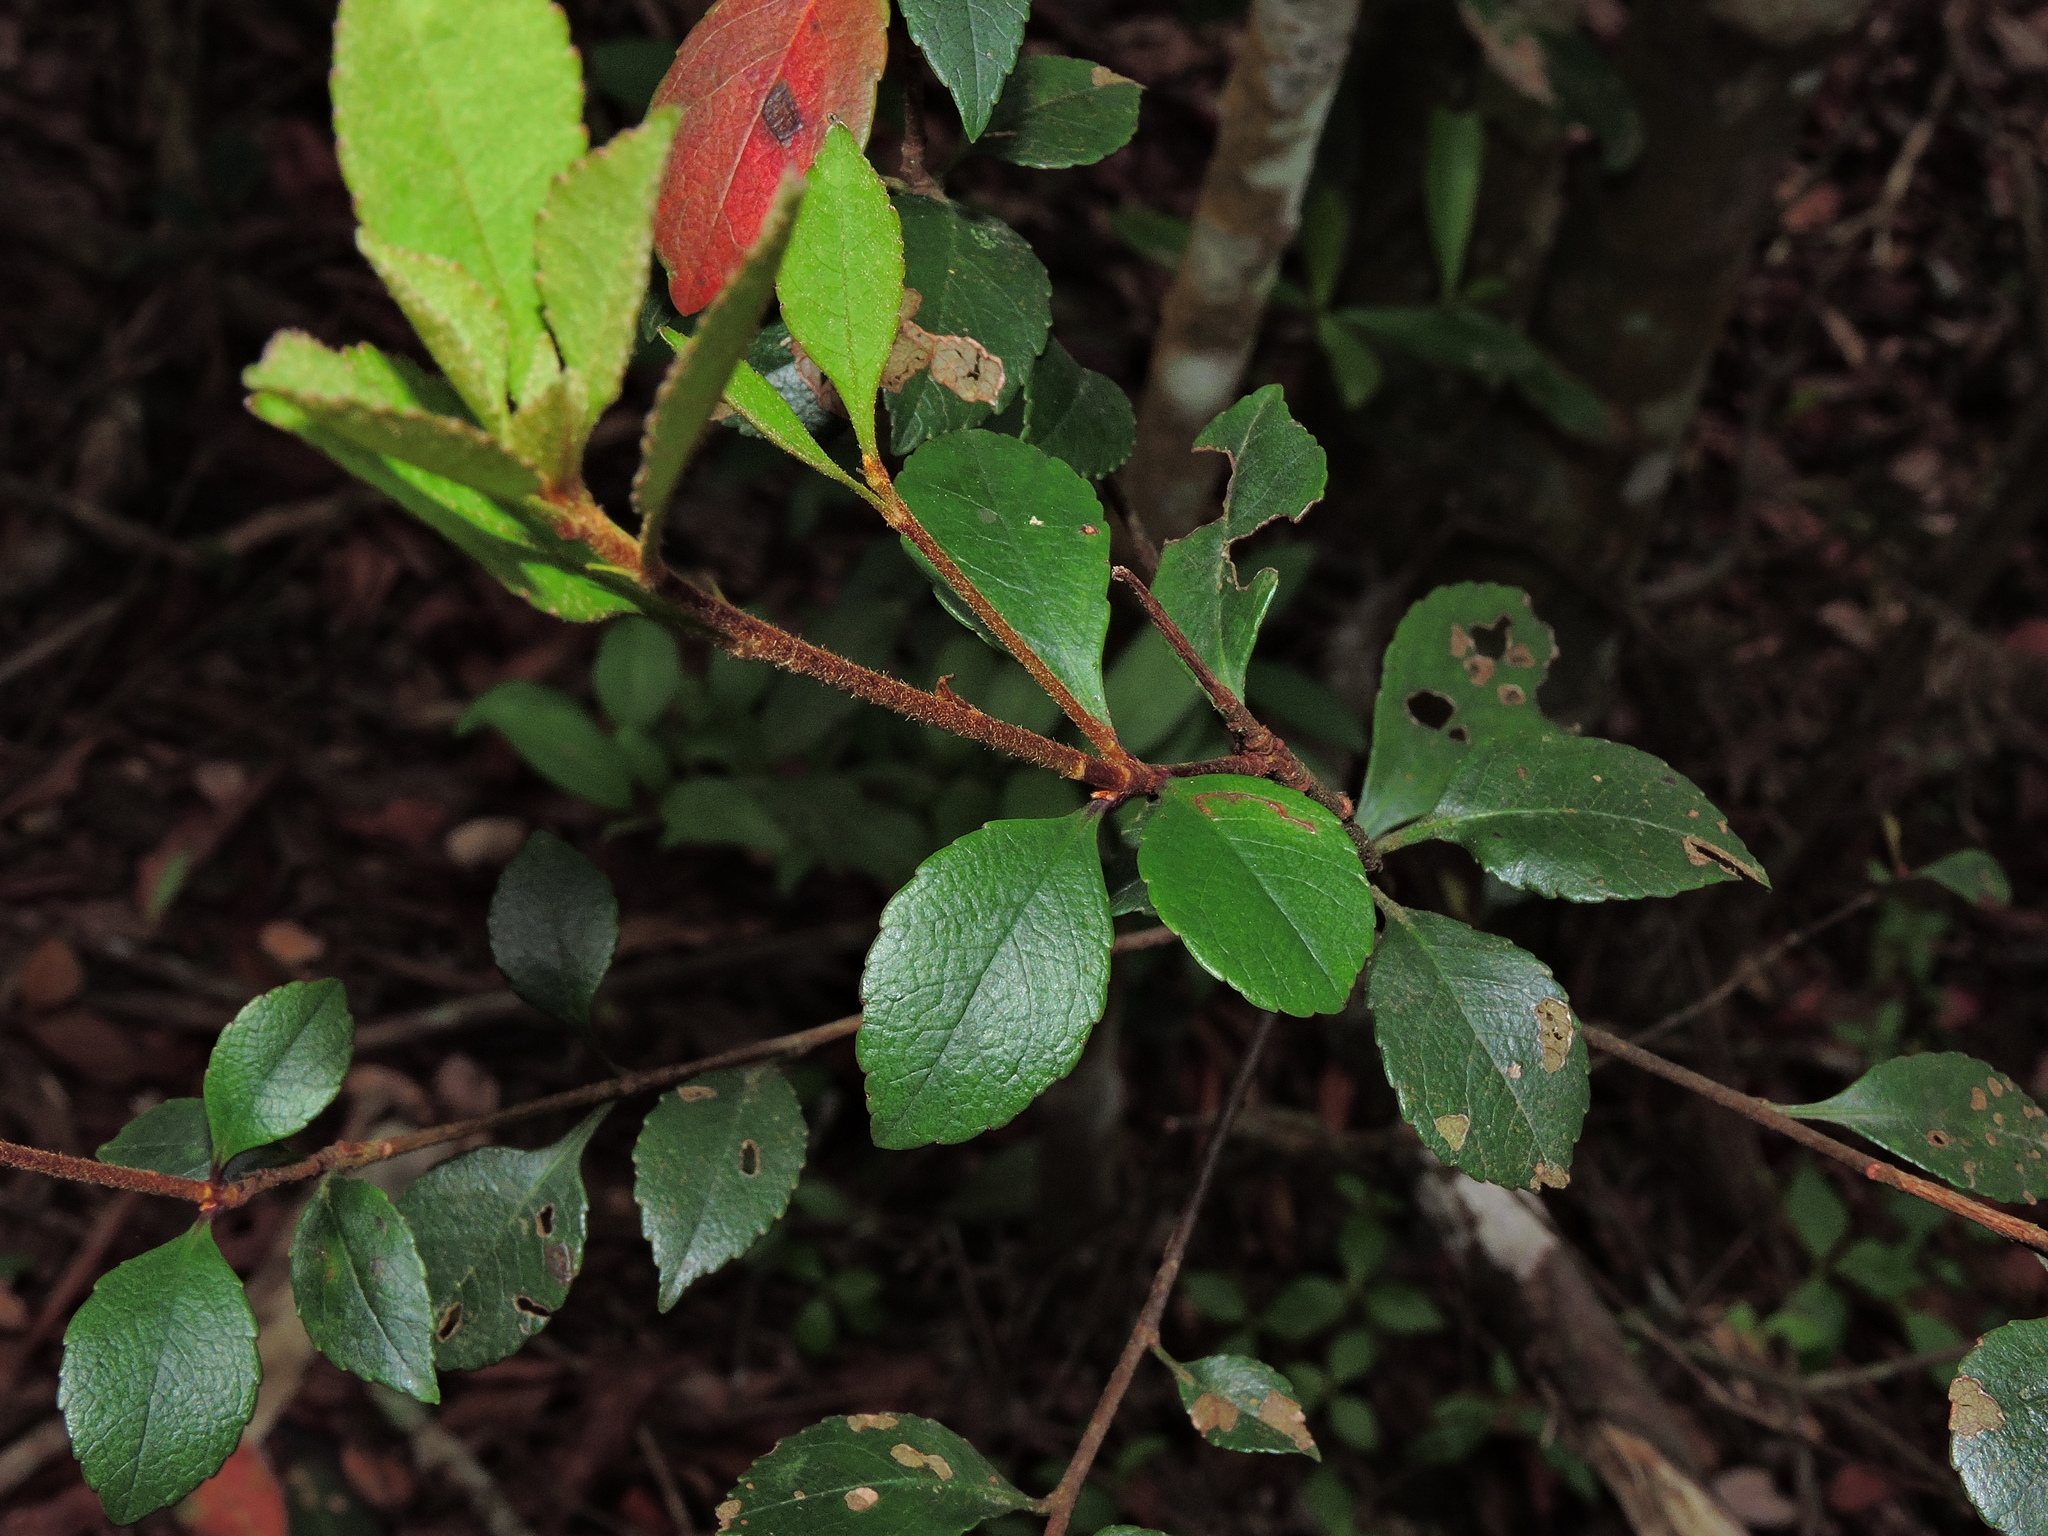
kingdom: Plantae
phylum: Tracheophyta
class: Magnoliopsida
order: Rosales
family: Rosaceae
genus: Rhaphiolepis
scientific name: Rhaphiolepis indica
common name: India-hawthorn
